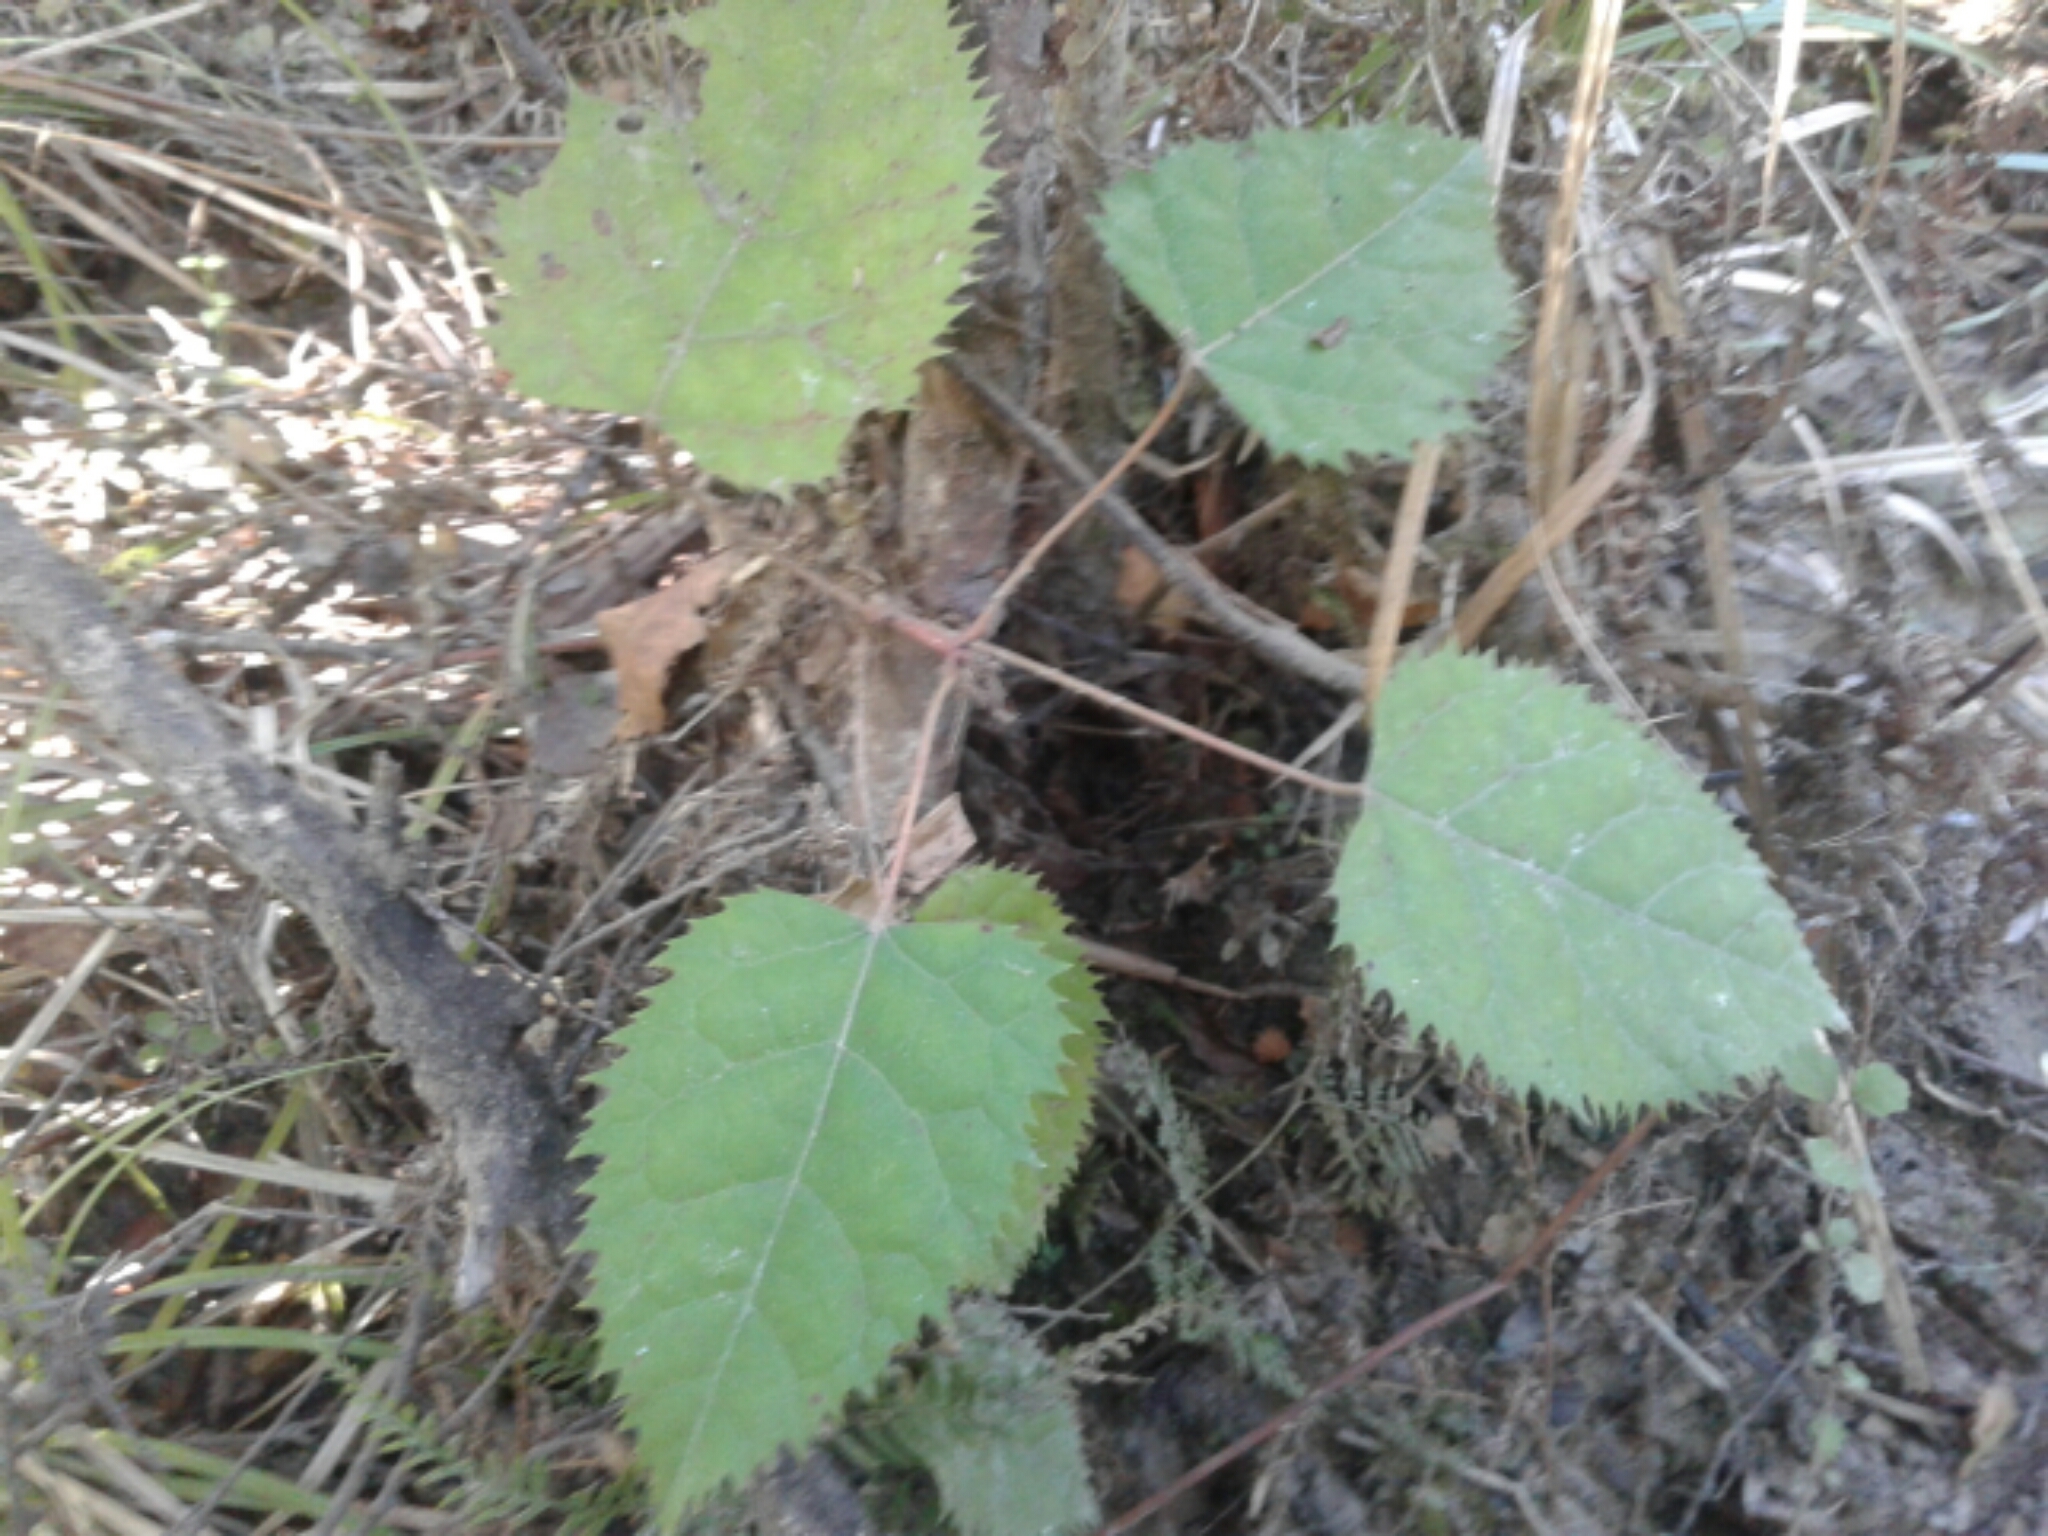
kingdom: Plantae
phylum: Tracheophyta
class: Magnoliopsida
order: Oxalidales
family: Elaeocarpaceae
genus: Aristotelia
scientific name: Aristotelia serrata
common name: New zealand wineberry
